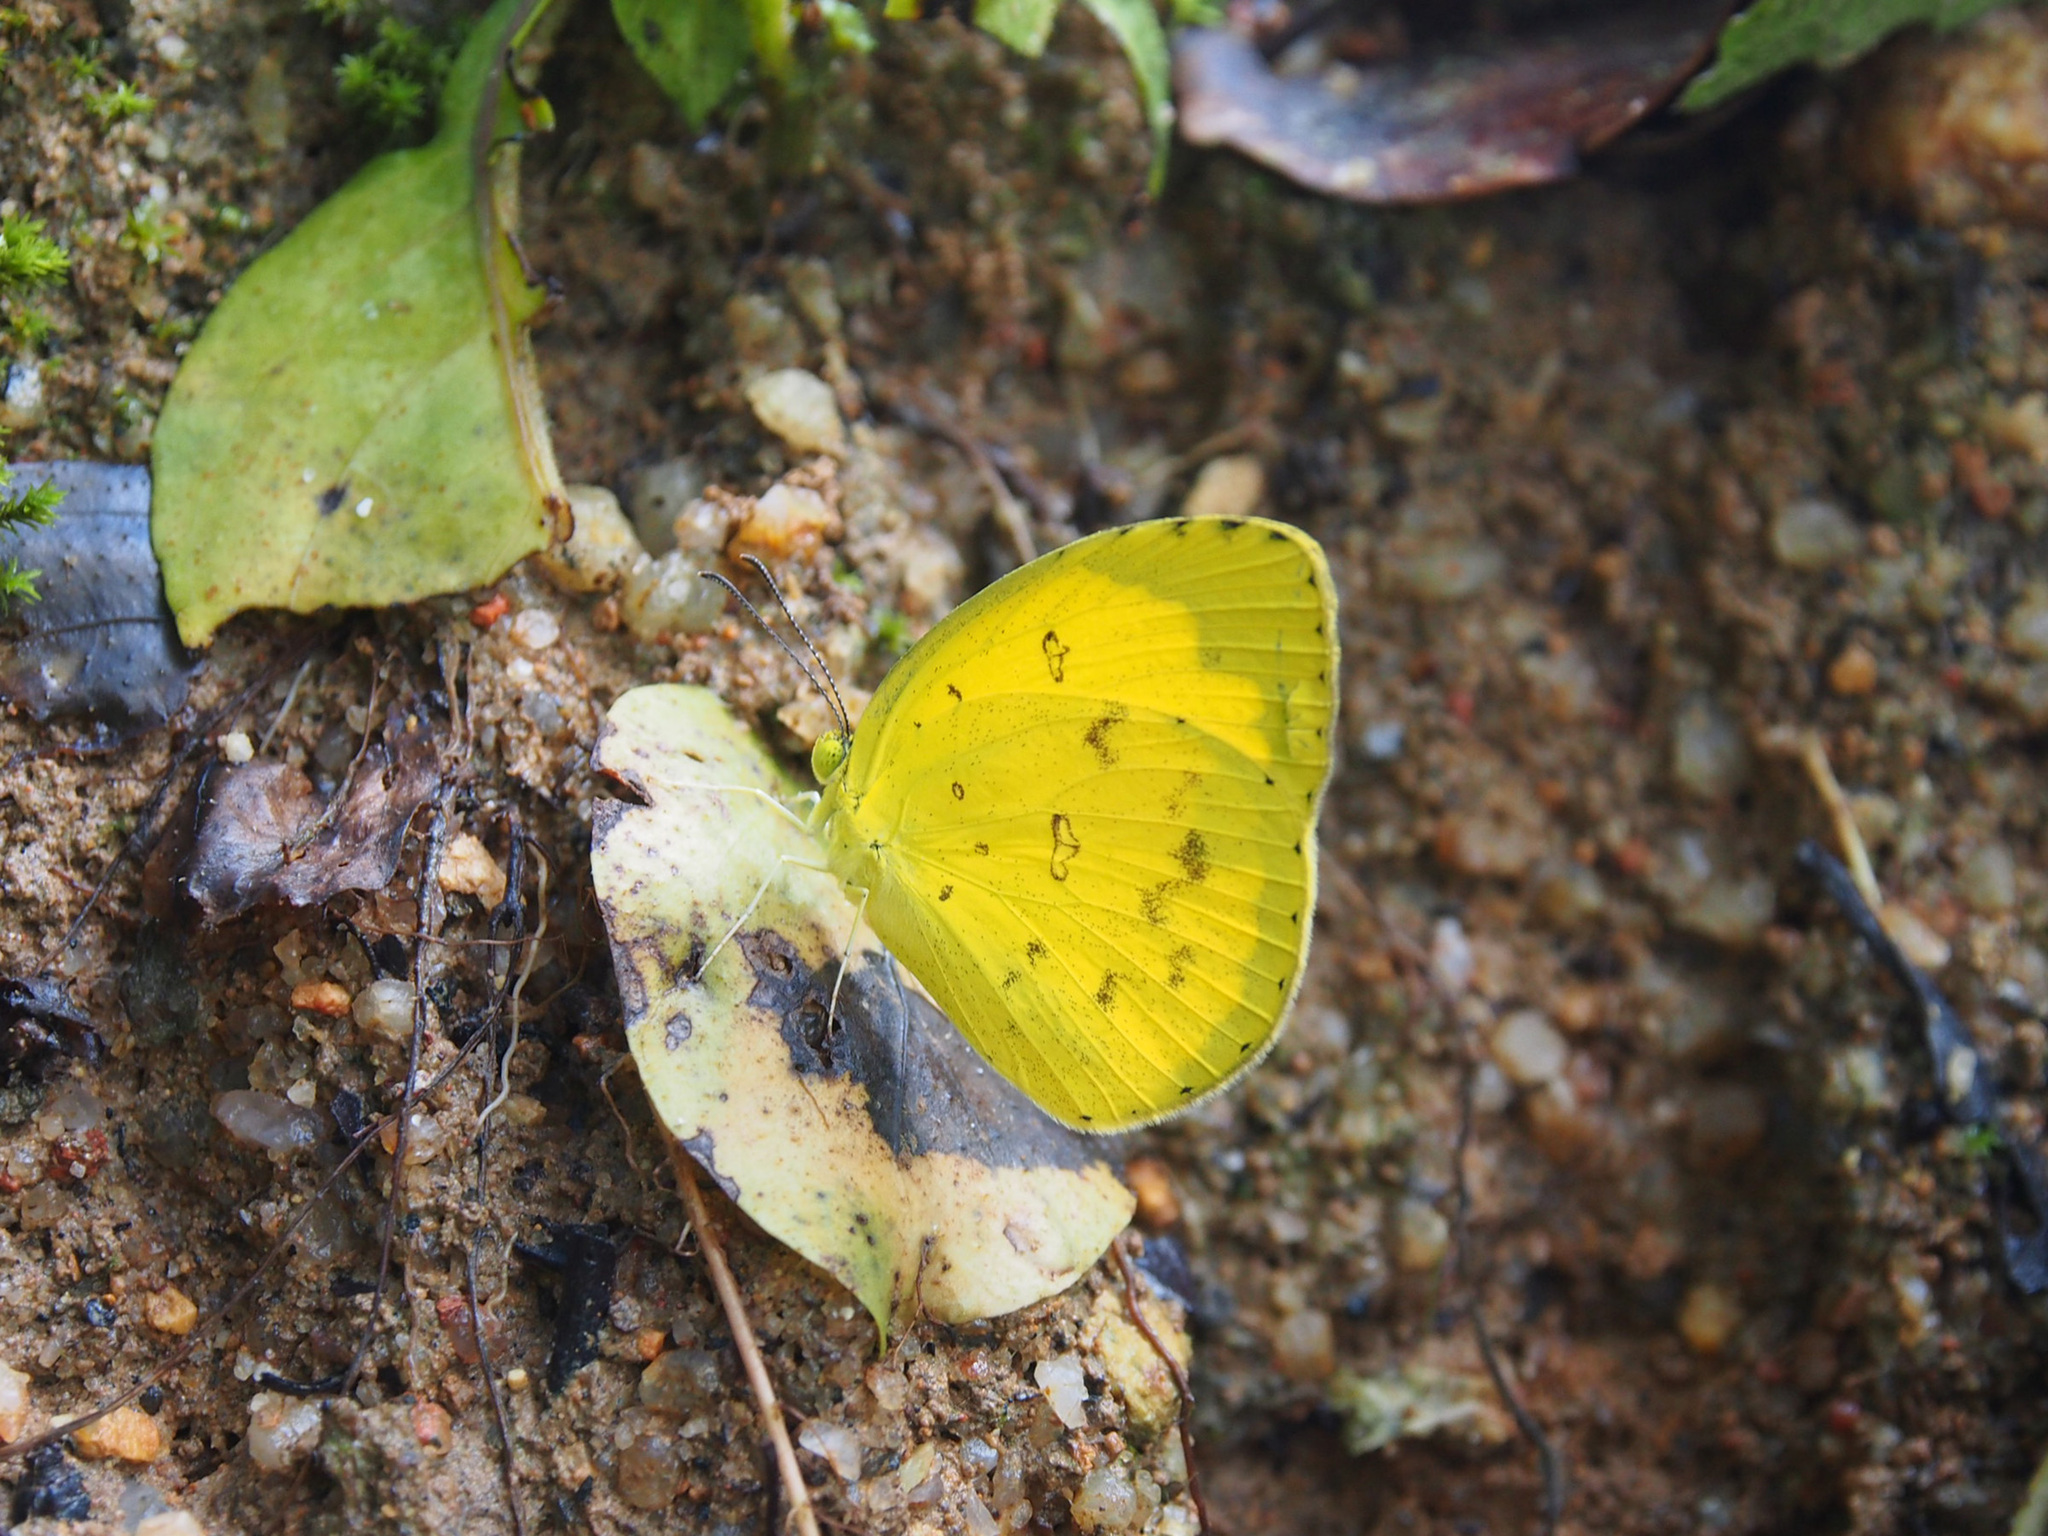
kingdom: Animalia
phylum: Arthropoda
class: Insecta
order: Lepidoptera
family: Pieridae
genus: Eurema
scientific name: Eurema hecabe
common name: Pale grass yellow
